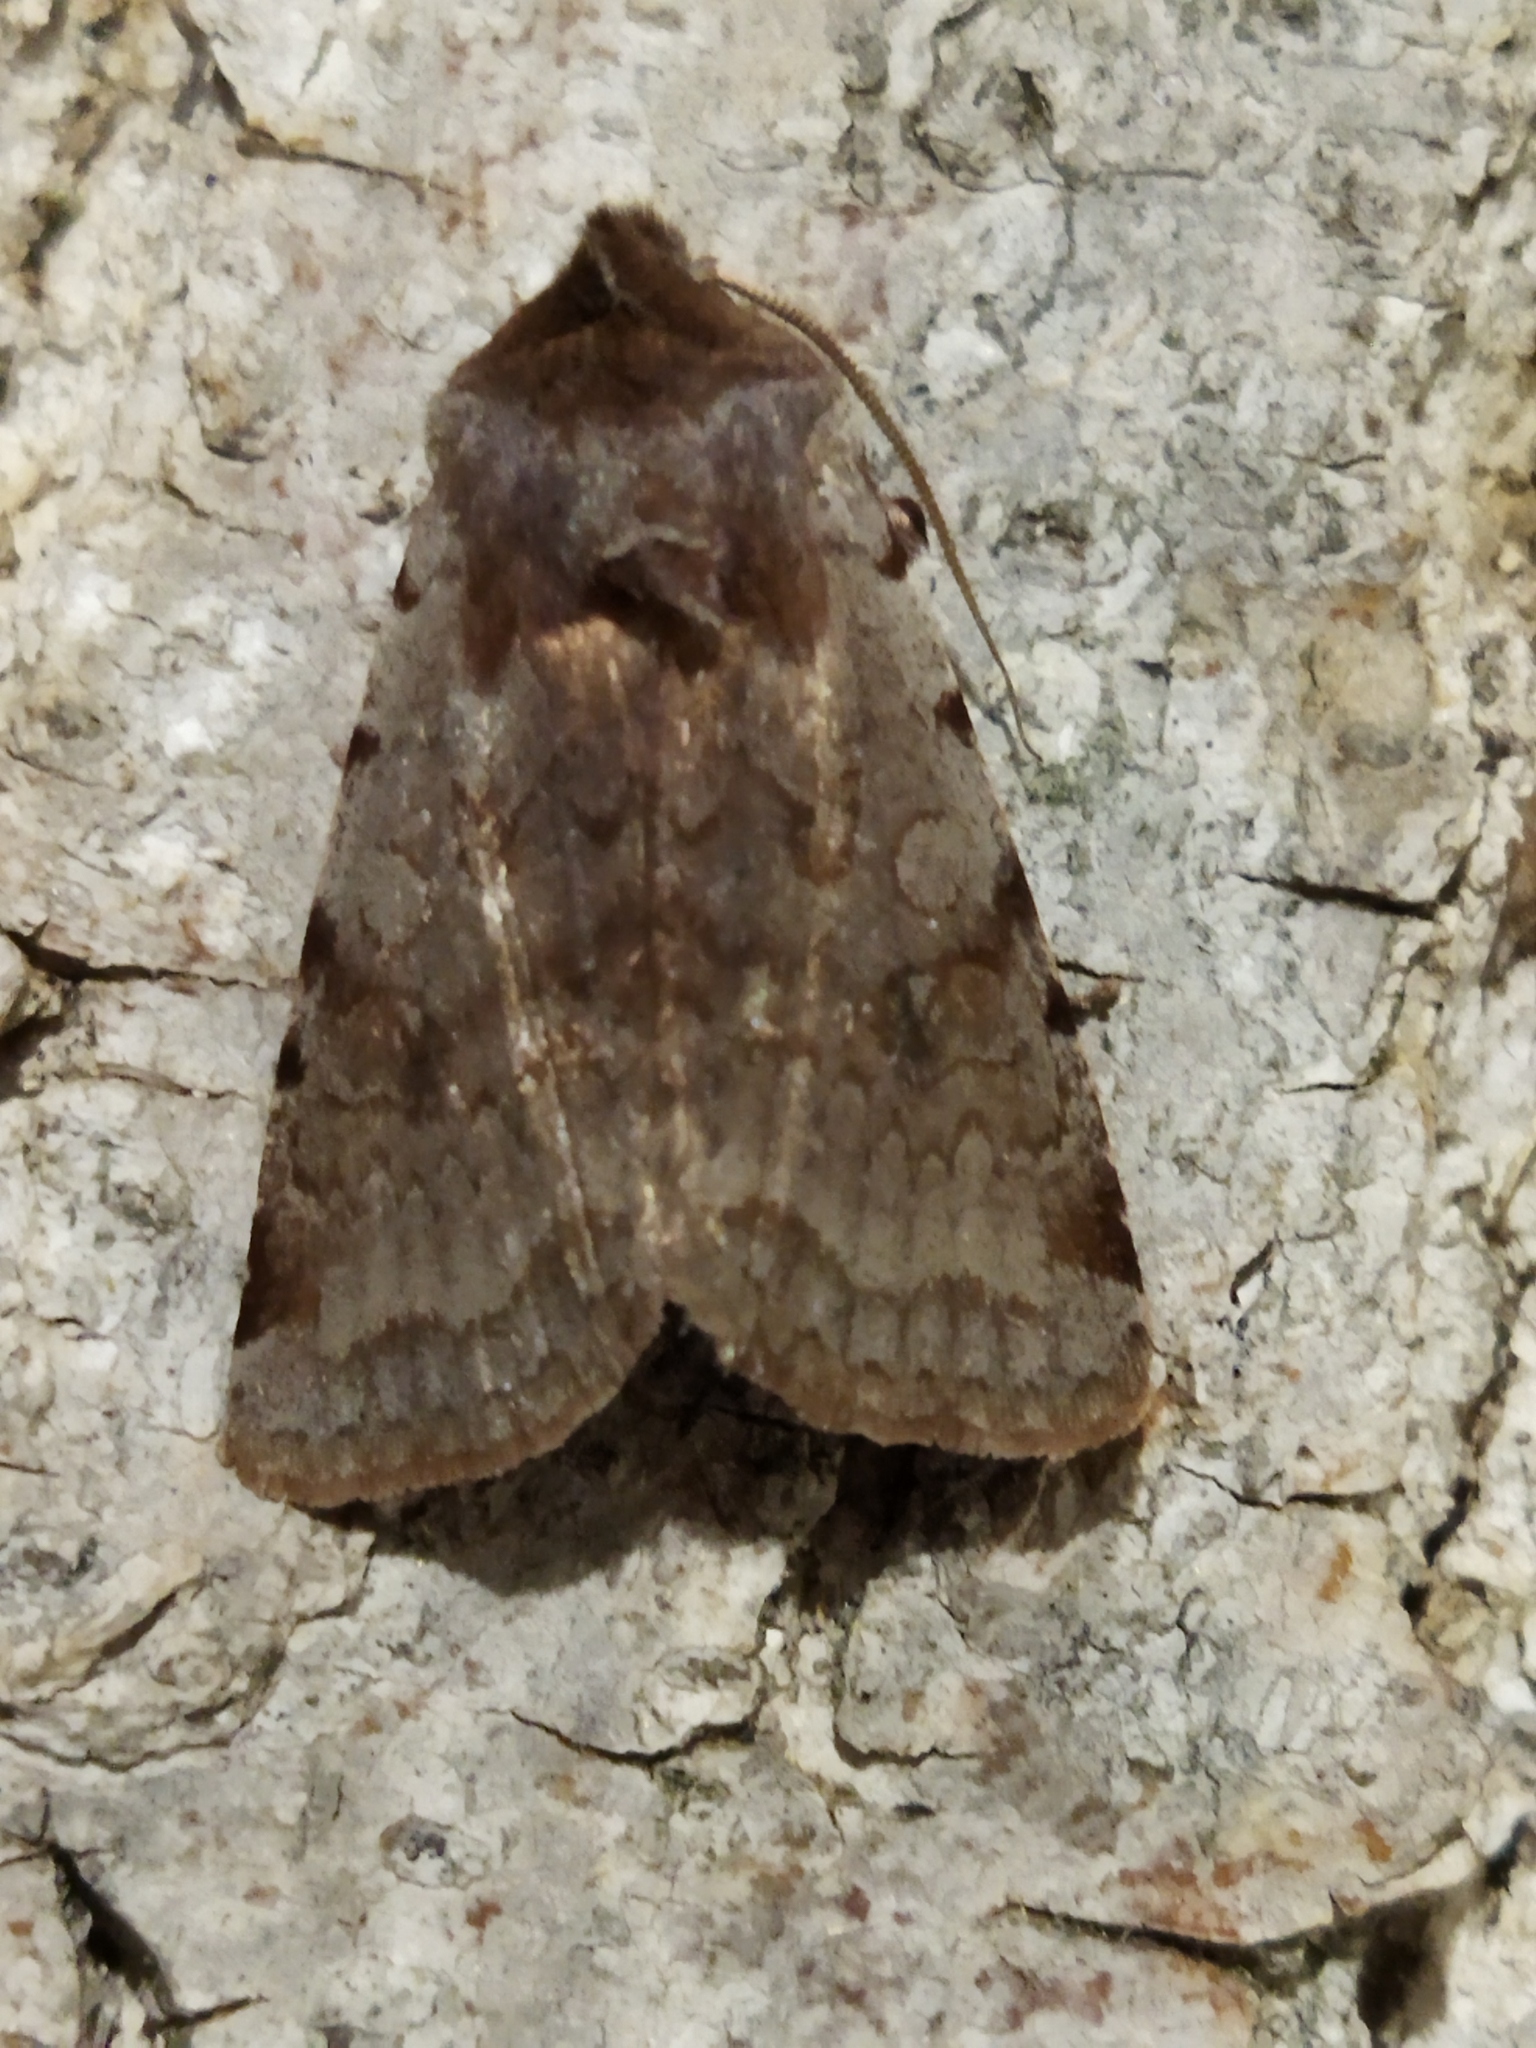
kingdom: Animalia
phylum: Arthropoda
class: Insecta
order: Lepidoptera
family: Noctuidae
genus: Cerastis
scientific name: Cerastis rubricosa
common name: Red chestnut
